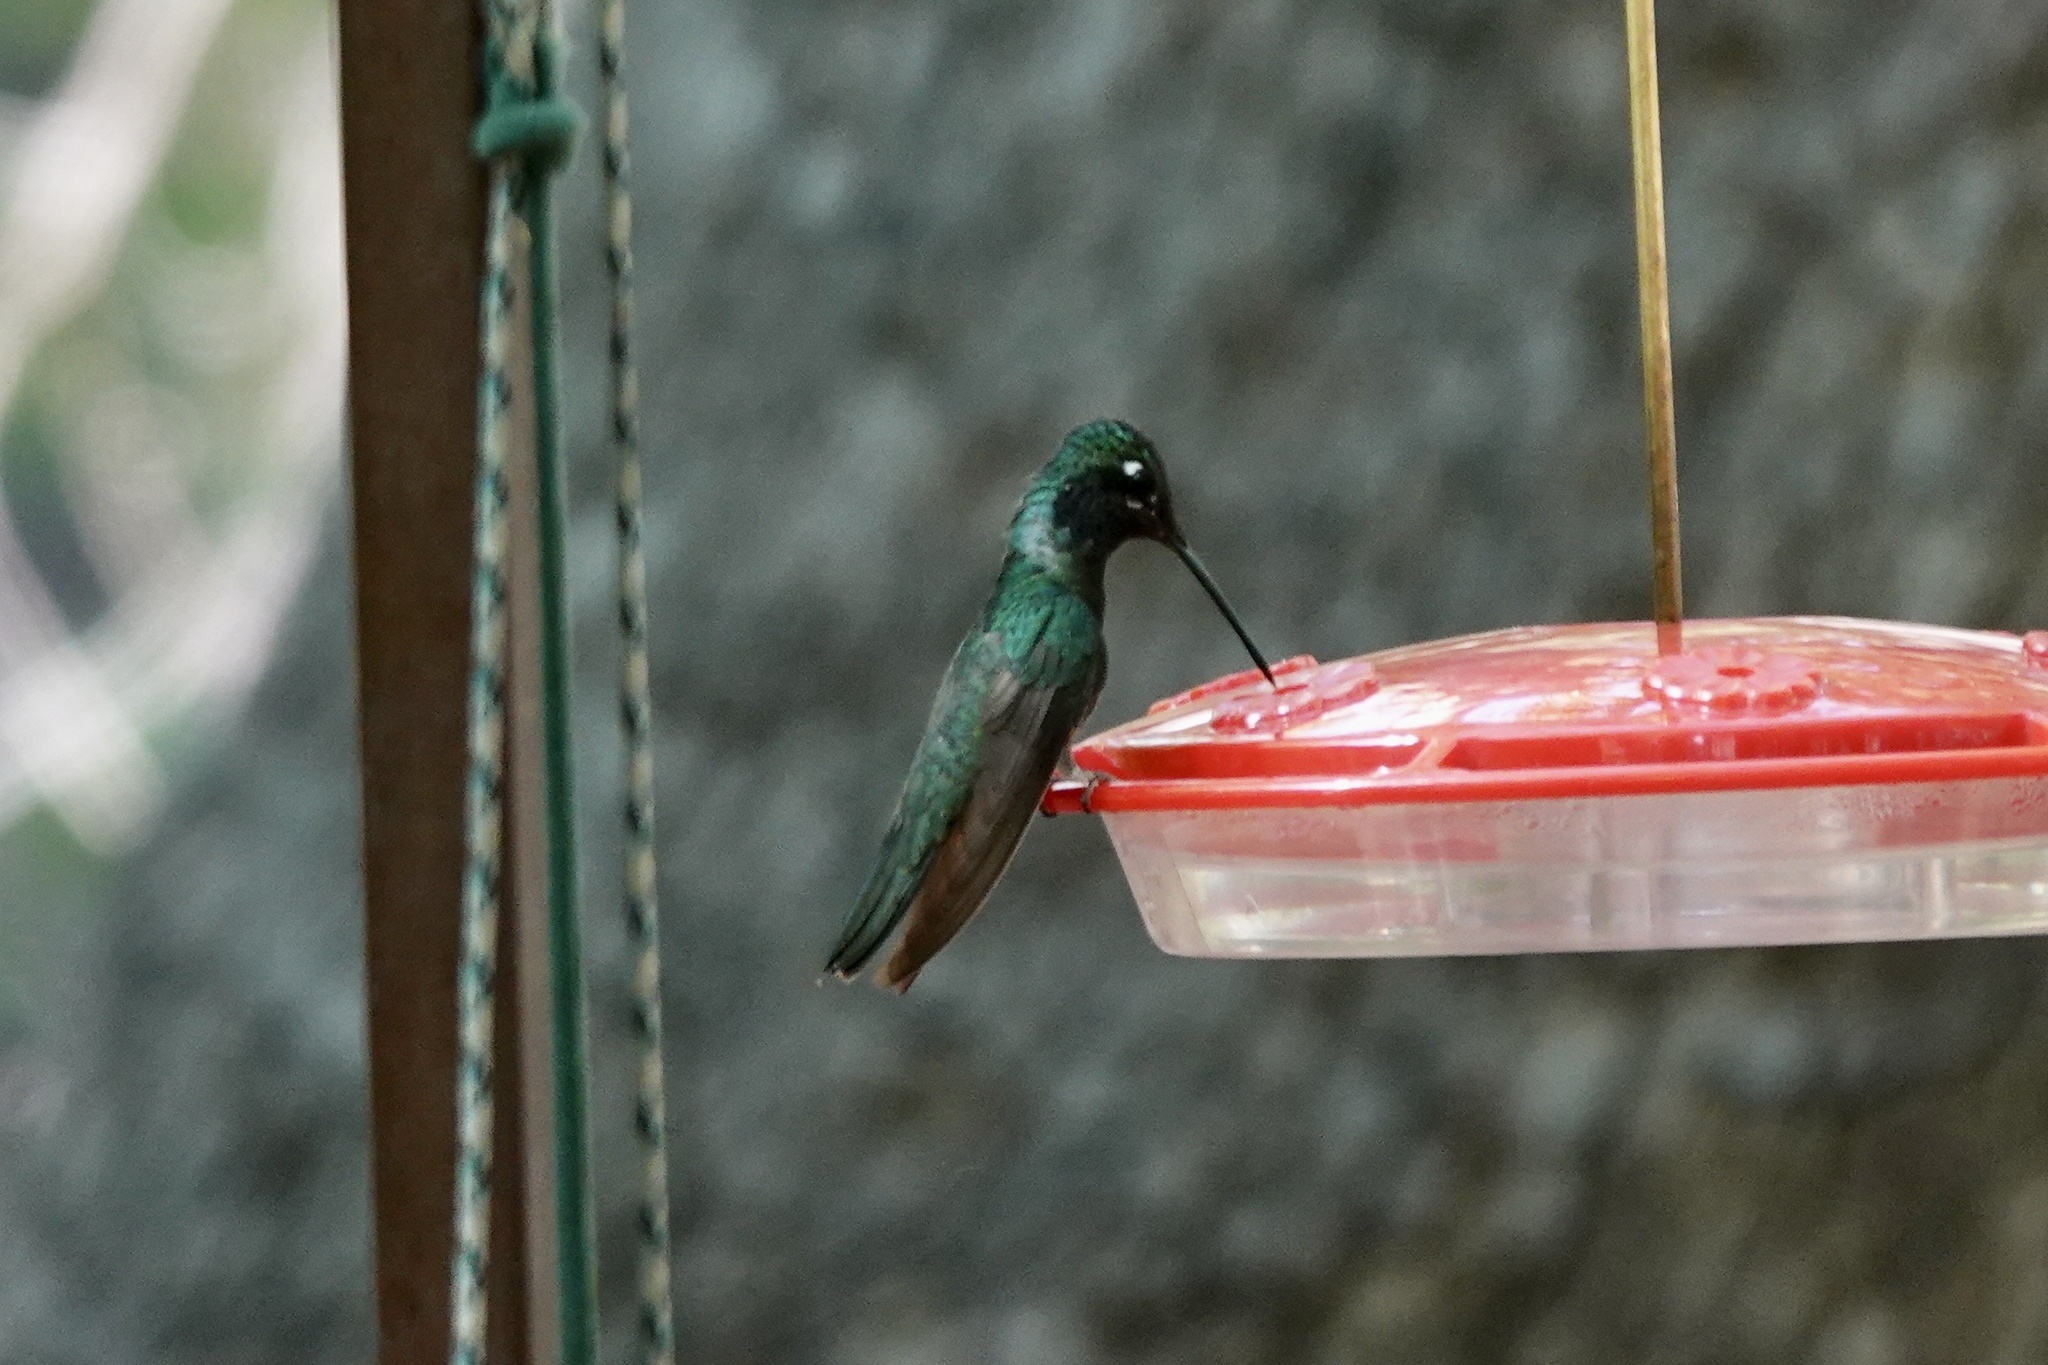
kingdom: Animalia
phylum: Chordata
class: Aves
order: Apodiformes
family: Trochilidae
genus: Eugenes
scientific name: Eugenes fulgens
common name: Magnificent hummingbird
